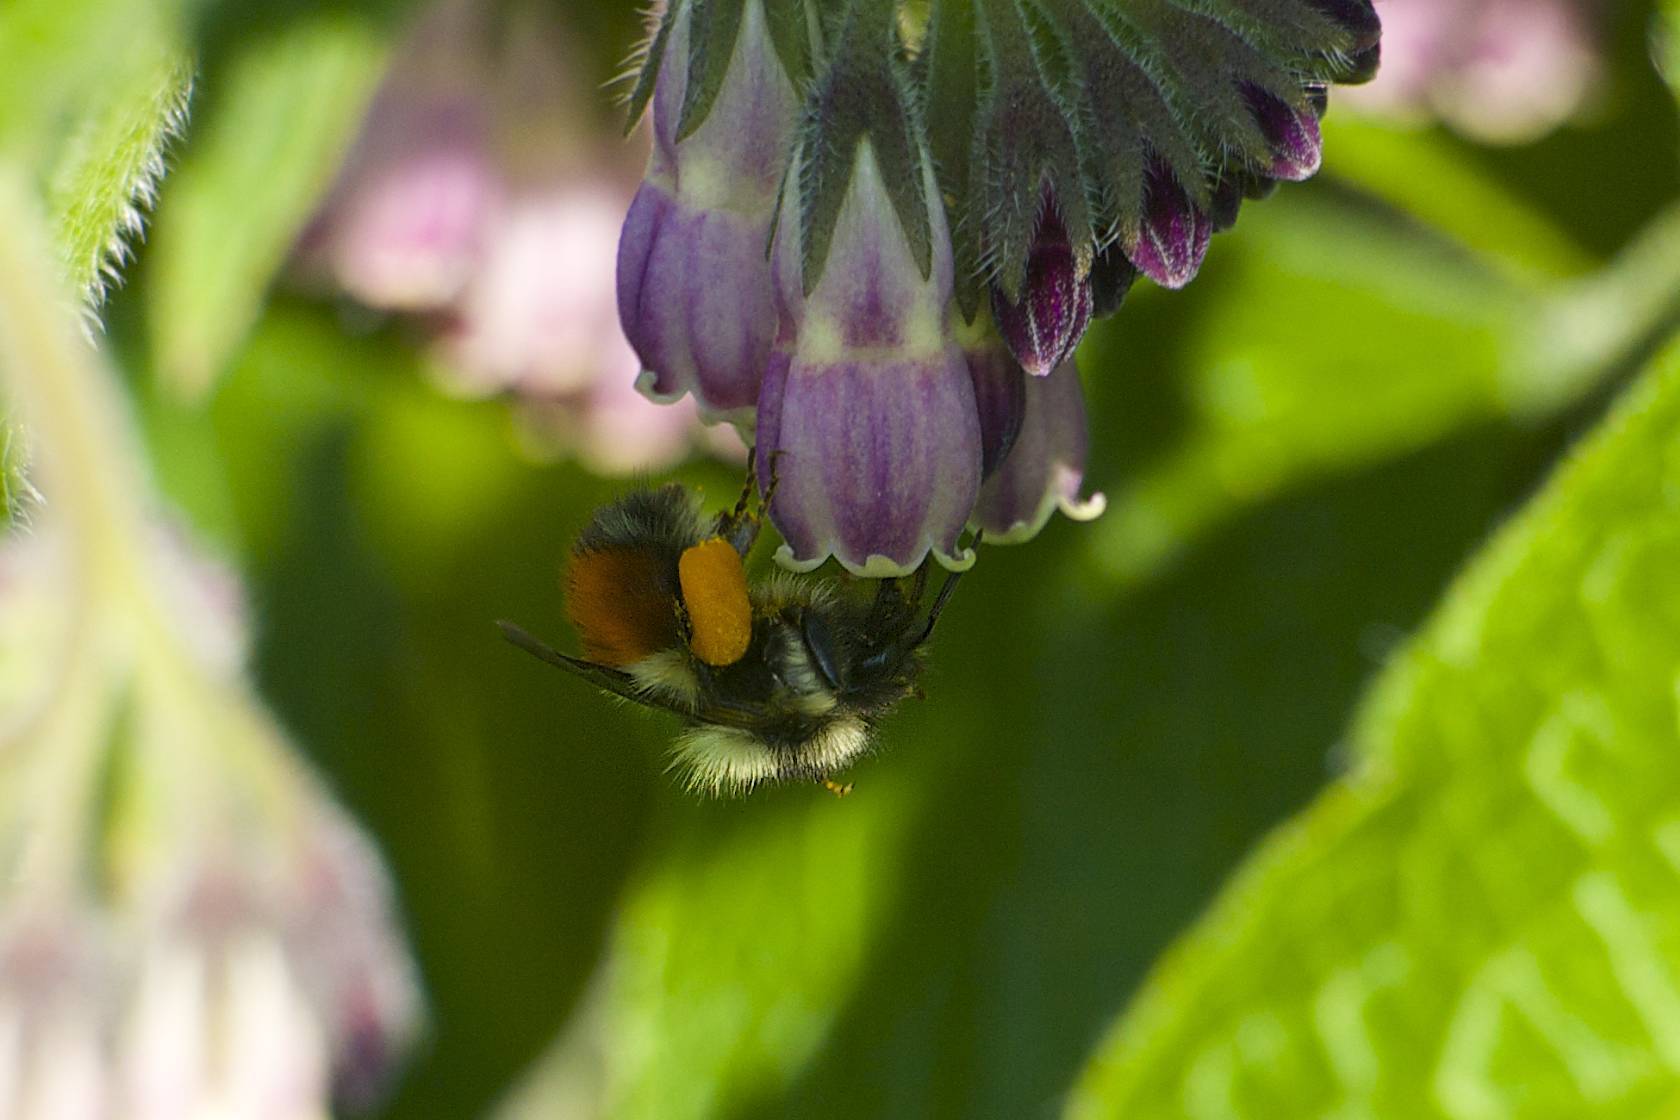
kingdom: Animalia
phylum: Arthropoda
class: Insecta
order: Hymenoptera
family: Apidae
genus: Bombus
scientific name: Bombus melanopygus
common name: Black tail bumble bee
